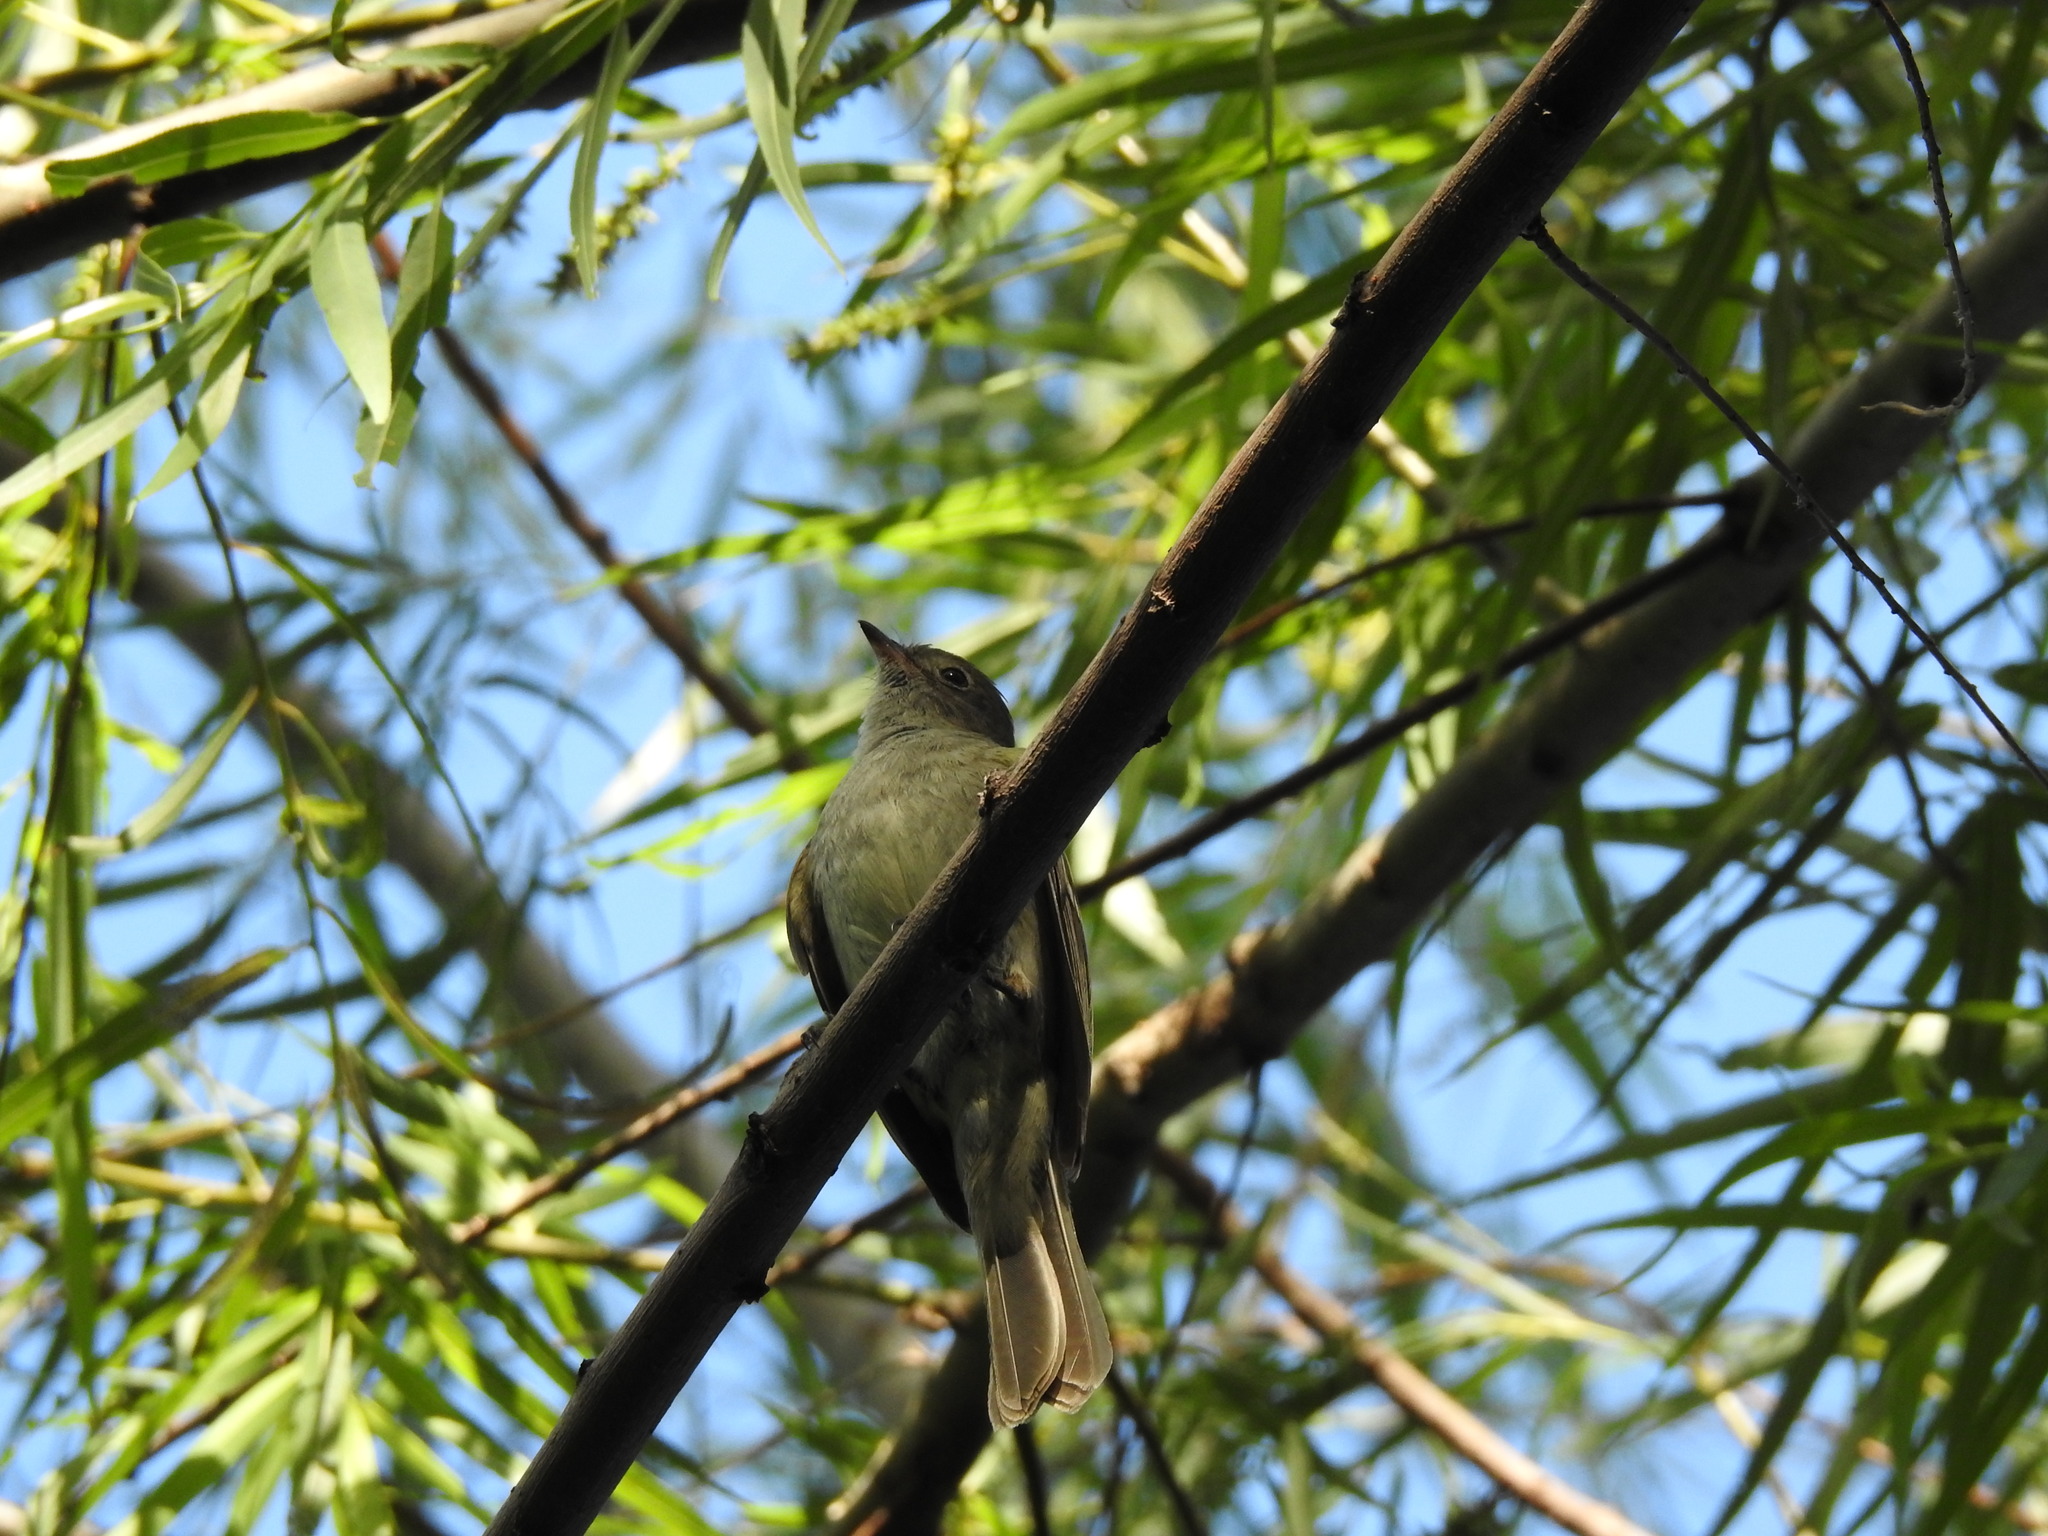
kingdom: Animalia
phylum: Chordata
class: Aves
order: Passeriformes
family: Tyrannidae
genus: Elaenia
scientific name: Elaenia parvirostris
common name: Small-billed elaenia
